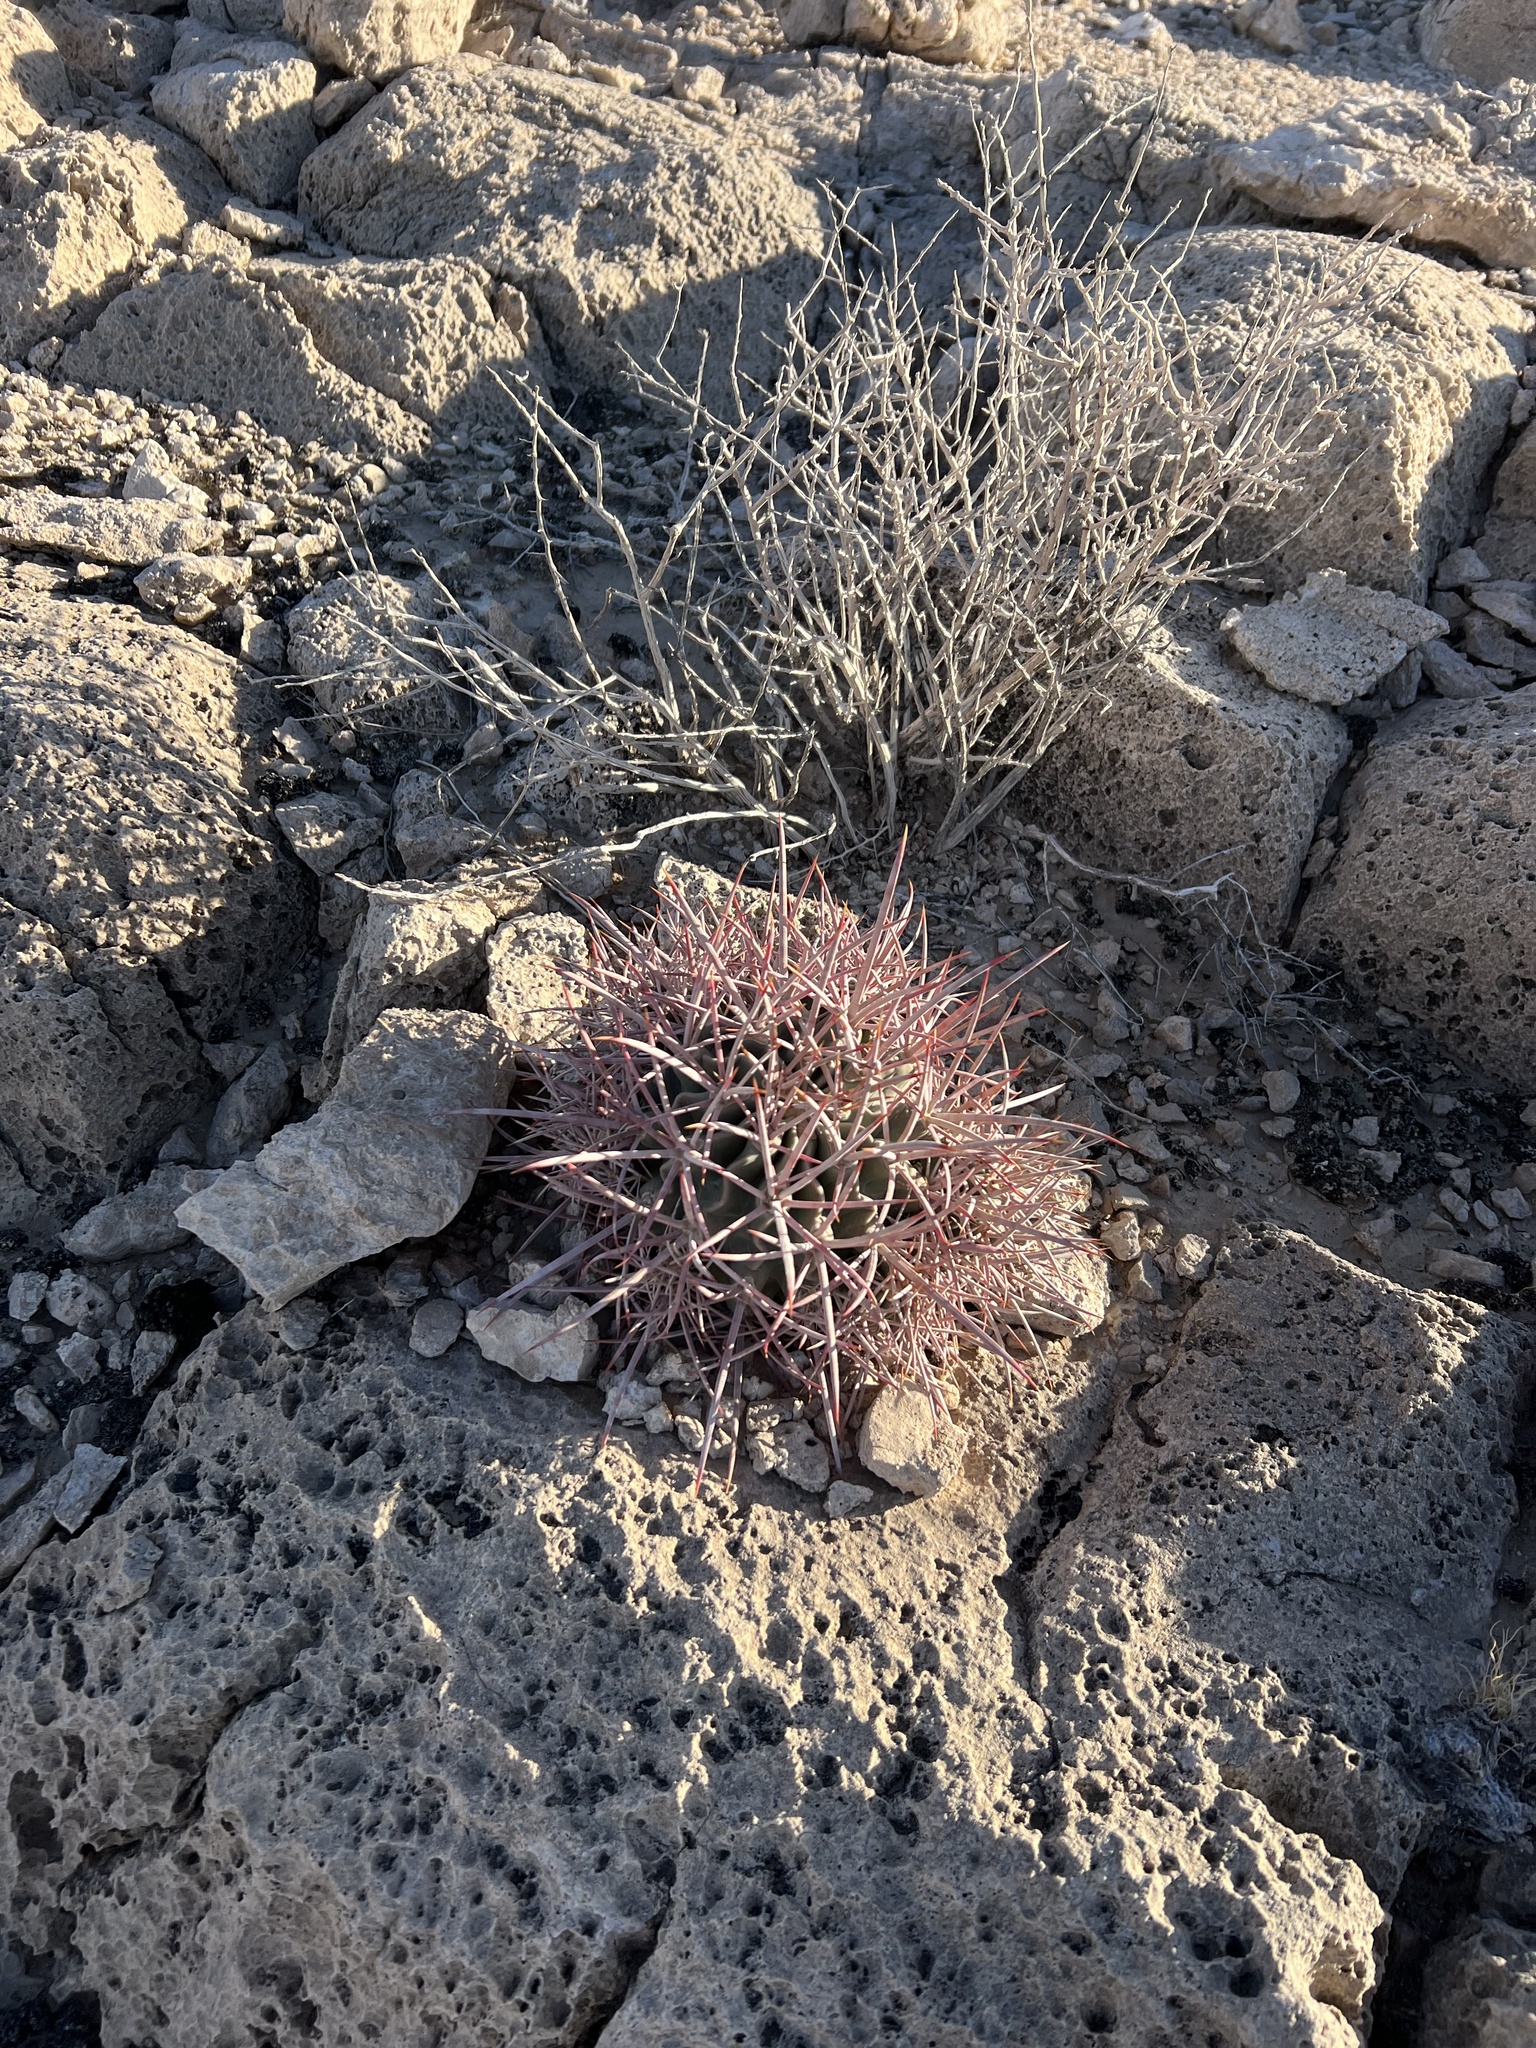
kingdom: Plantae
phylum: Tracheophyta
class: Magnoliopsida
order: Caryophyllales
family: Cactaceae
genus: Echinocactus
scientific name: Echinocactus polycephalus
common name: Cottontop cactus
